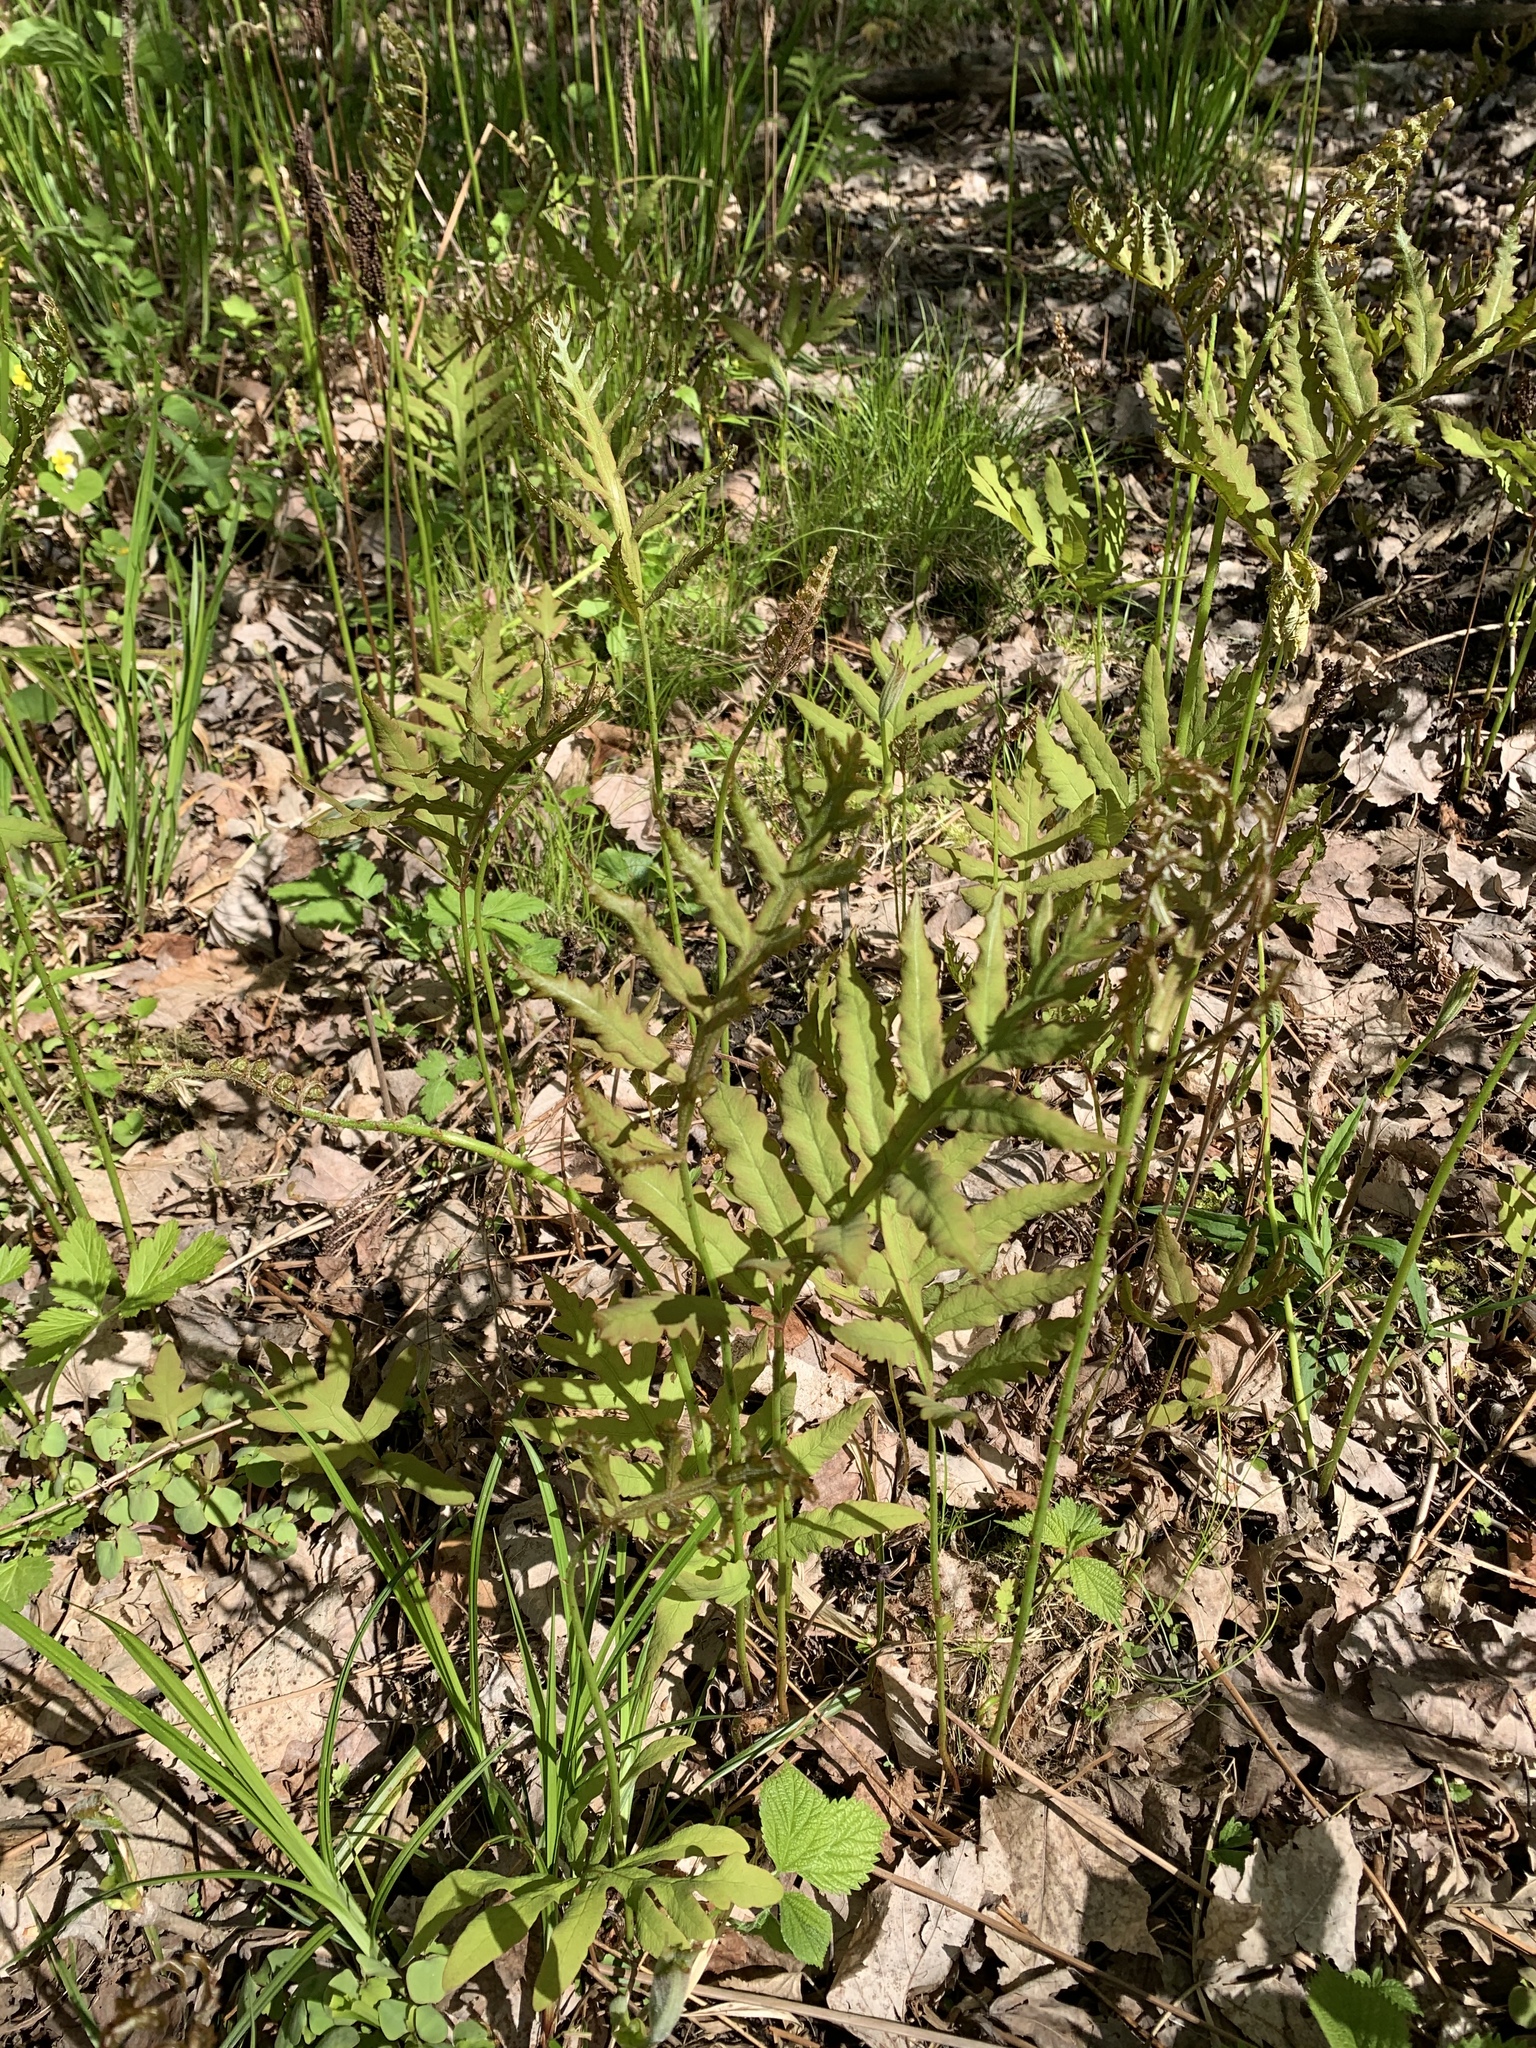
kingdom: Plantae
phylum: Tracheophyta
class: Polypodiopsida
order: Polypodiales
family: Onocleaceae
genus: Onoclea
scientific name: Onoclea sensibilis
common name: Sensitive fern
